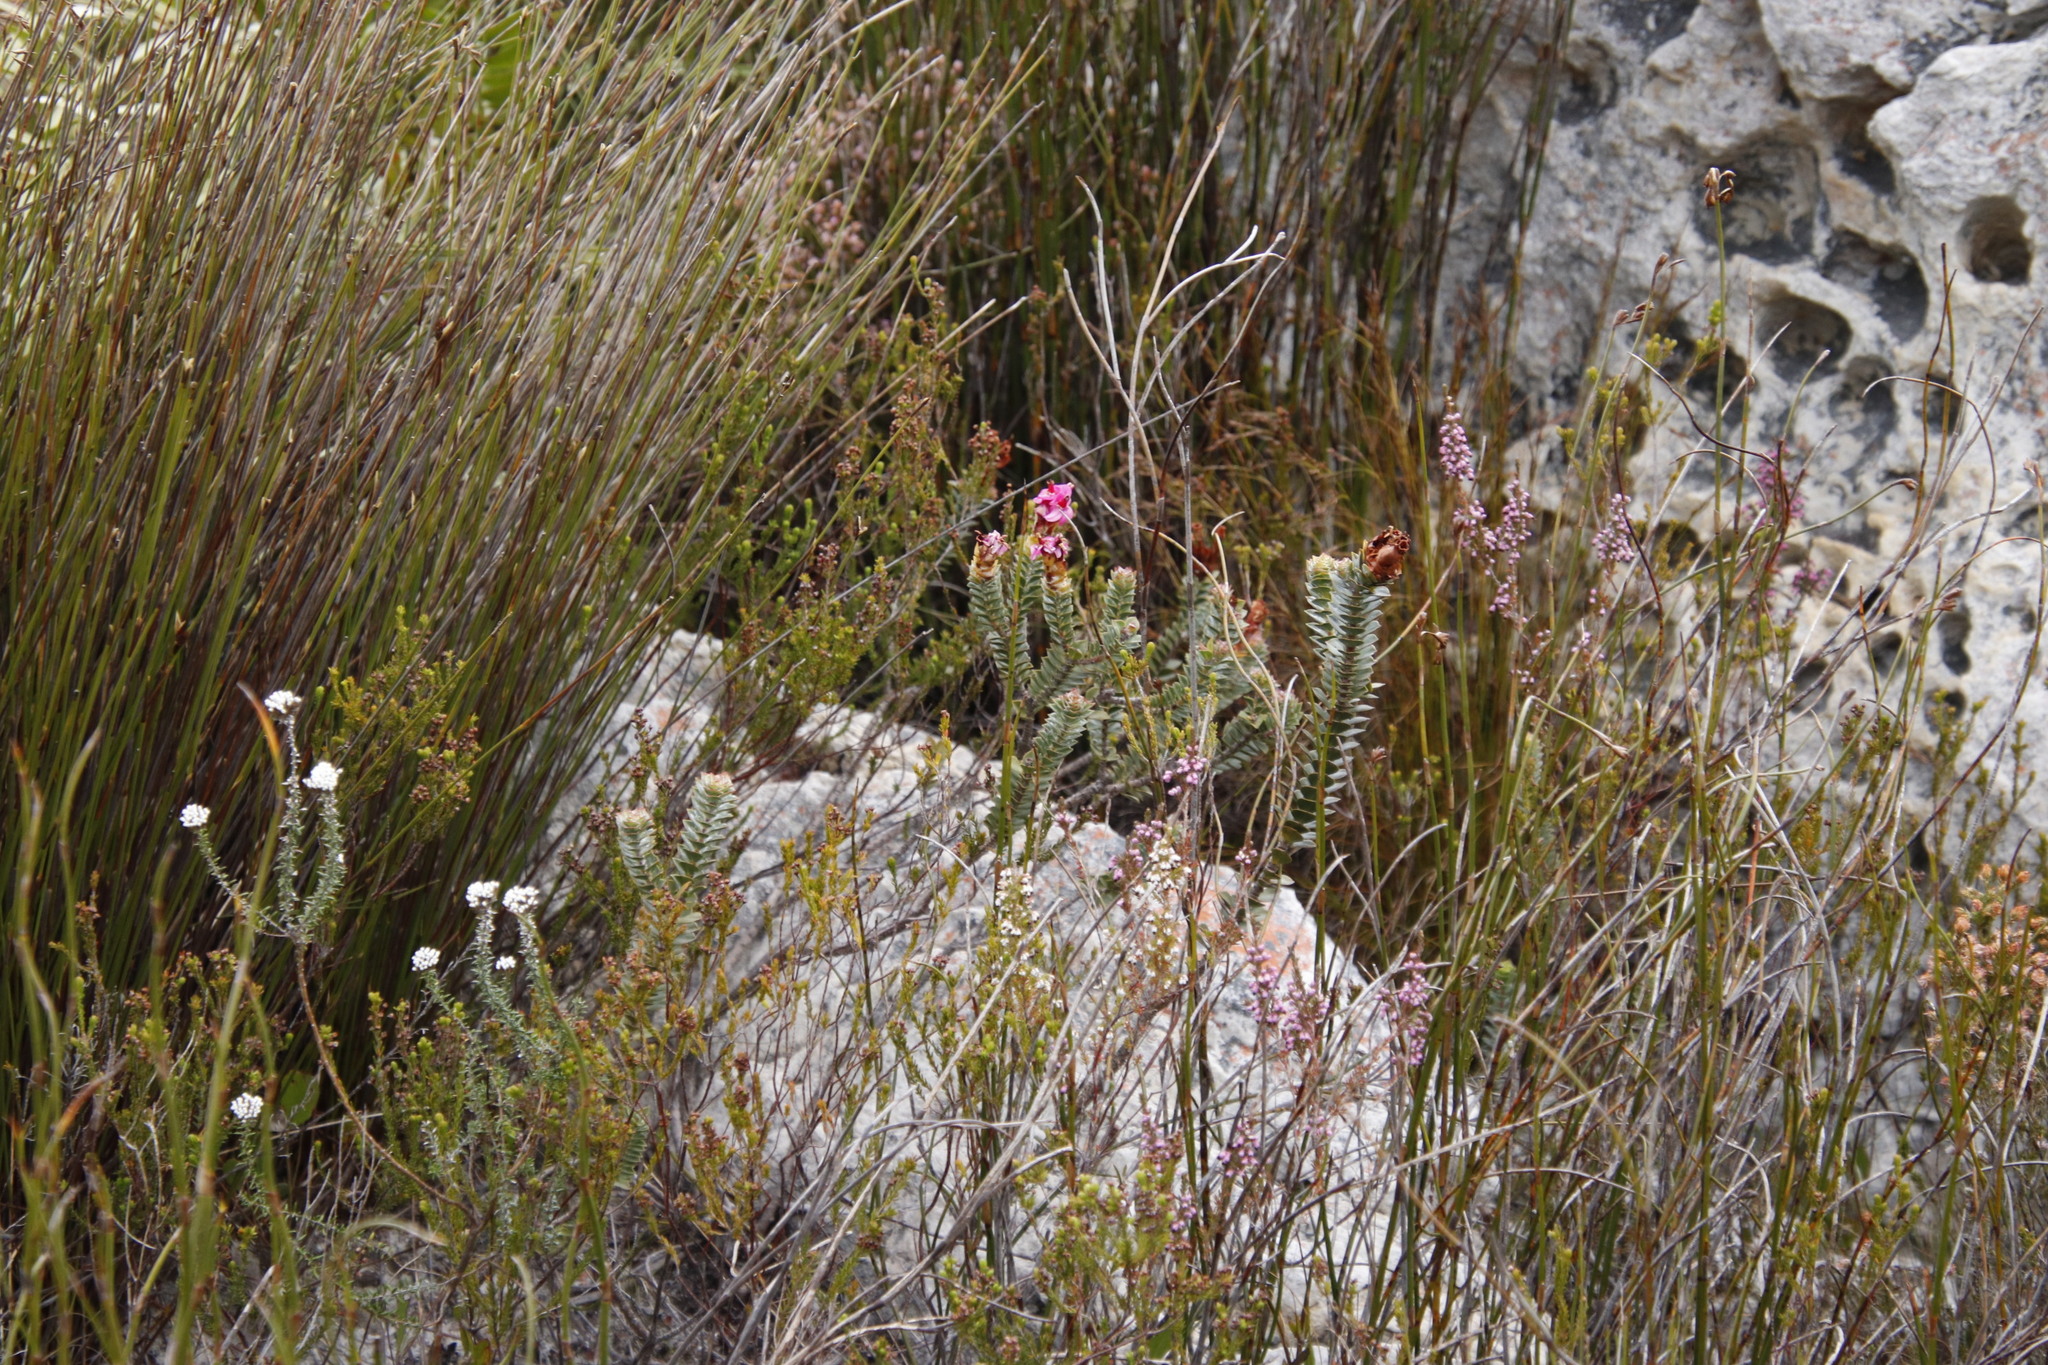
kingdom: Plantae
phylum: Tracheophyta
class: Magnoliopsida
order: Myrtales
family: Penaeaceae
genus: Saltera
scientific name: Saltera sarcocolla
